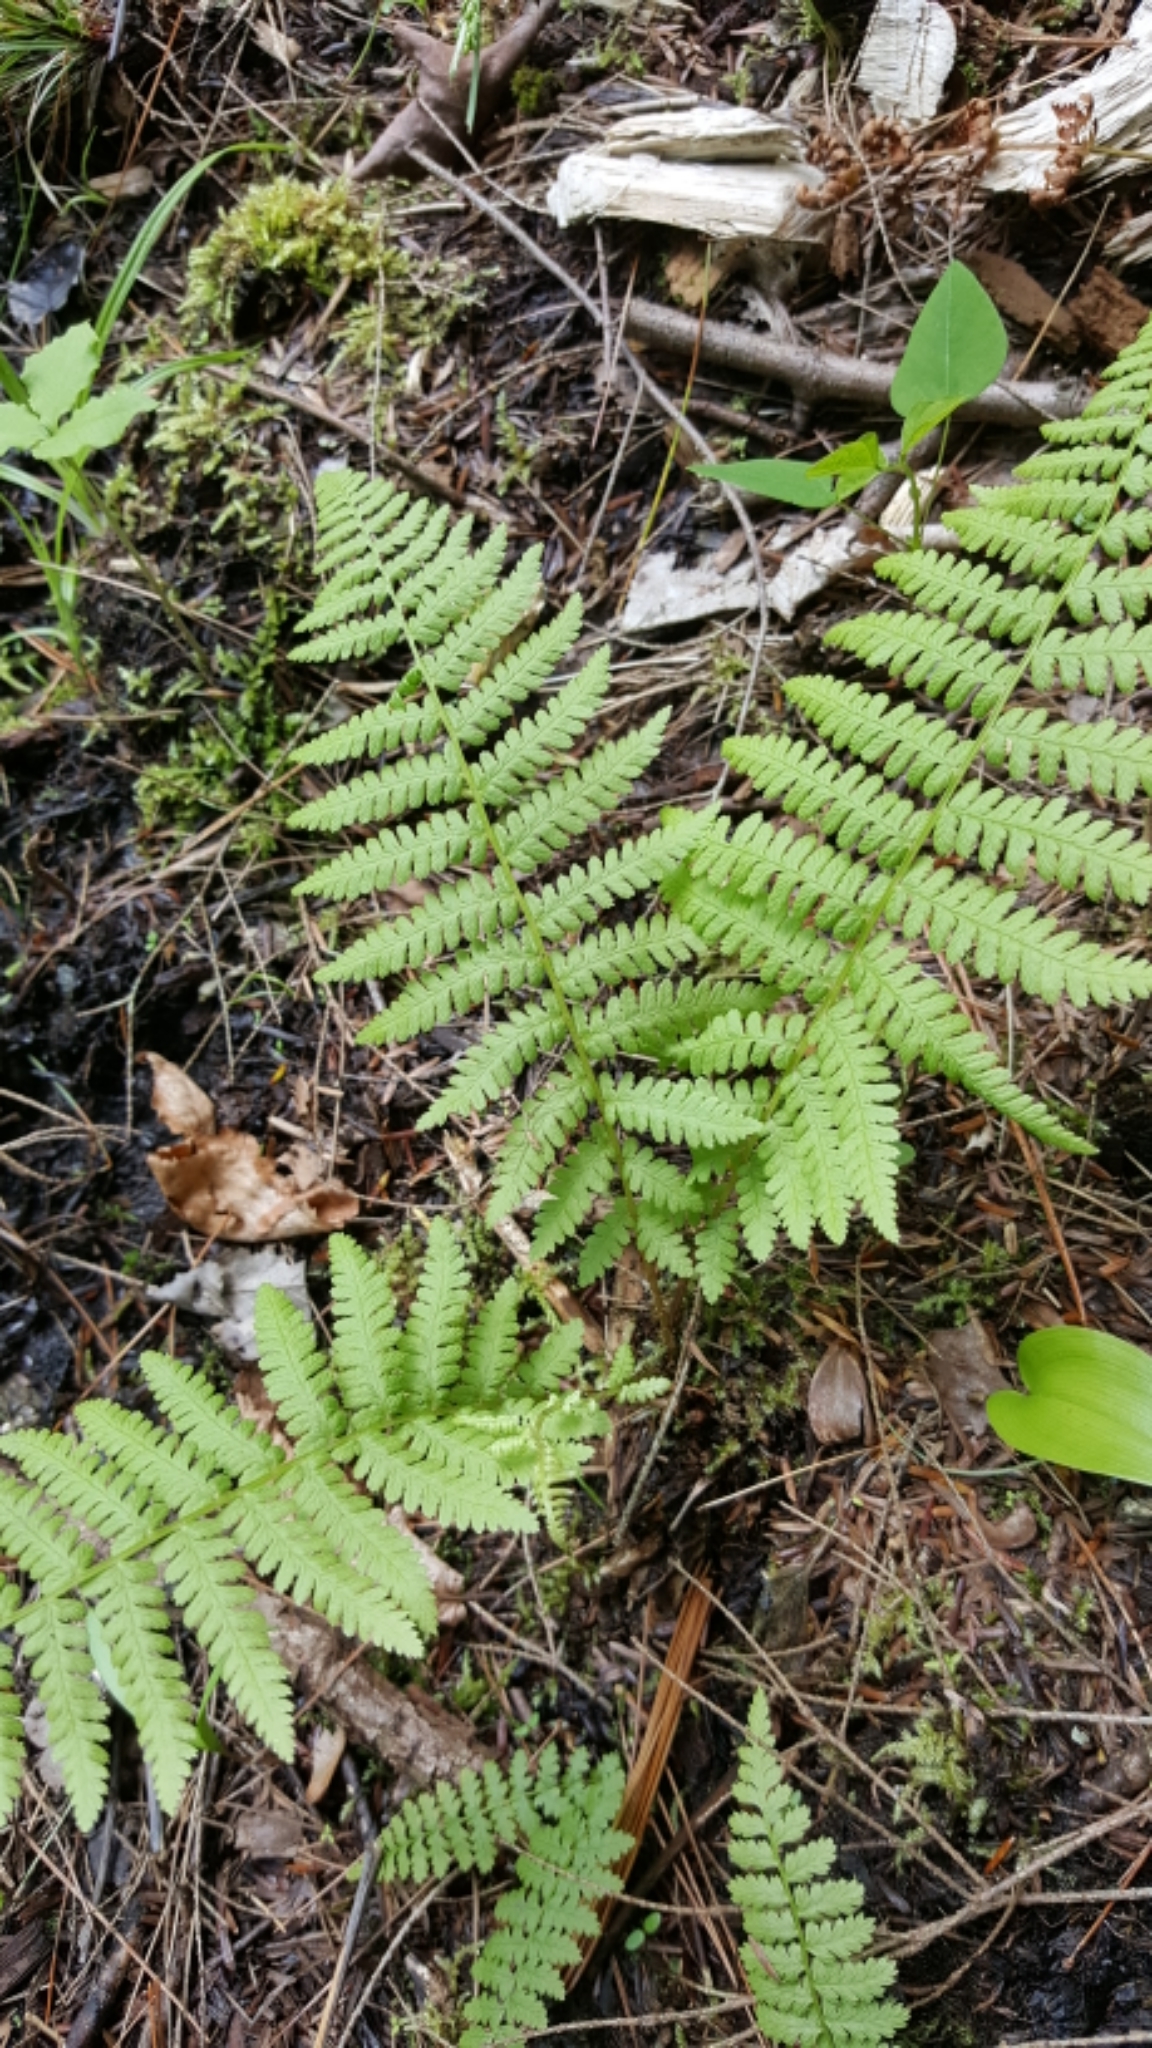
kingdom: Plantae
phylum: Tracheophyta
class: Polypodiopsida
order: Polypodiales
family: Athyriaceae
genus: Athyrium
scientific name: Athyrium angustum
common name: Northern lady fern
